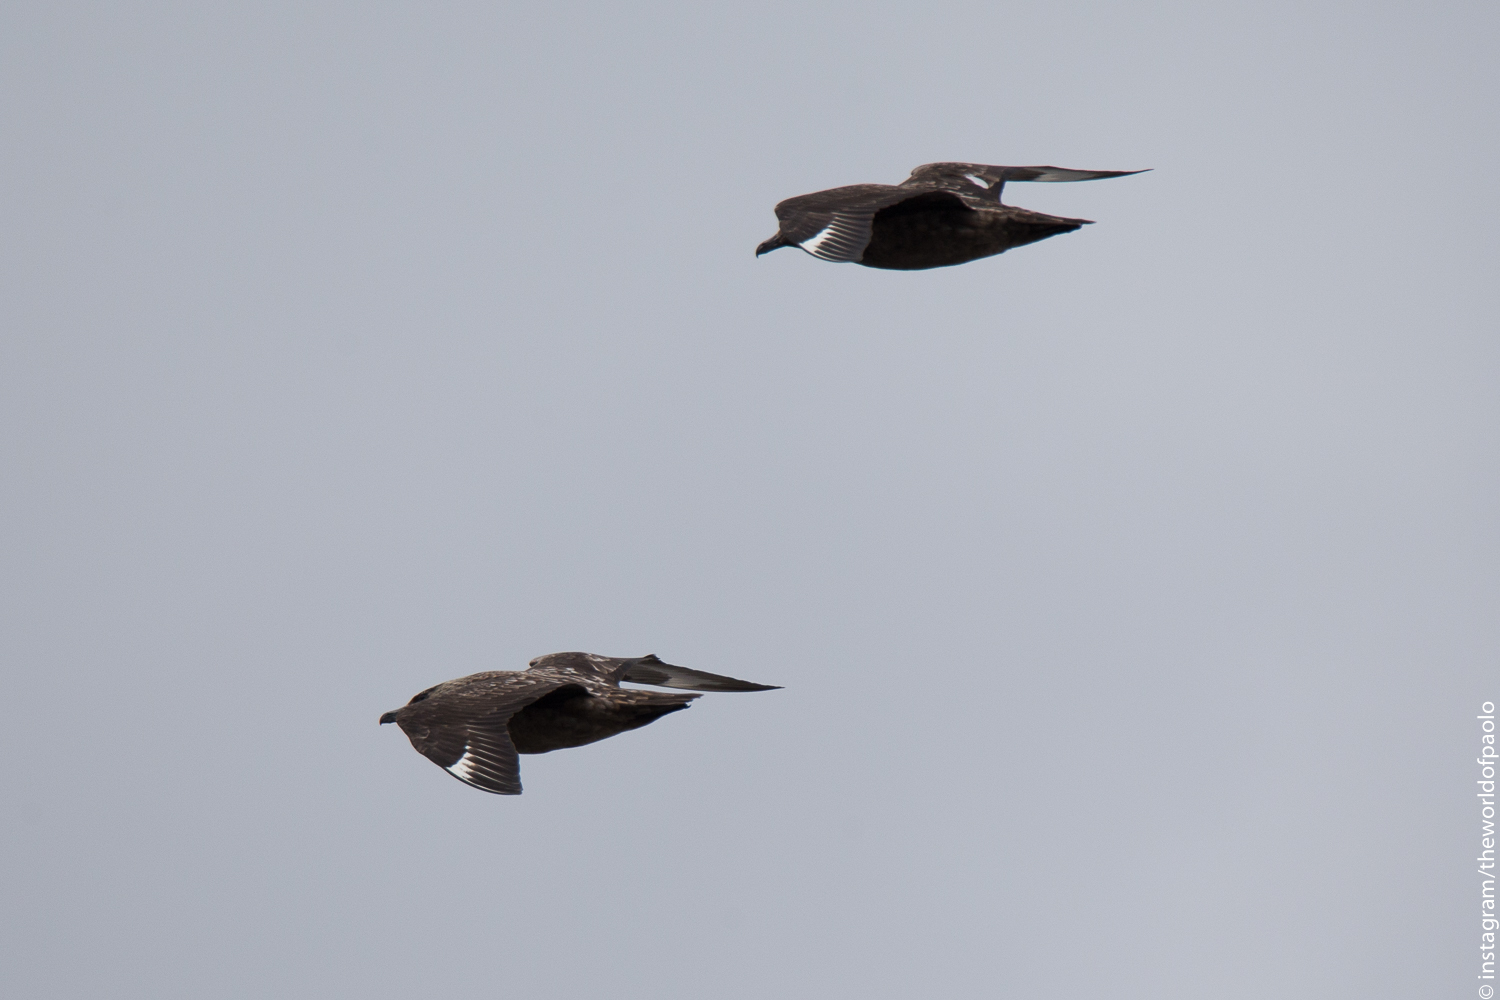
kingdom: Animalia
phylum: Chordata
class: Aves
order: Charadriiformes
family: Stercorariidae
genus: Stercorarius
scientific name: Stercorarius skua
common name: Great skua
